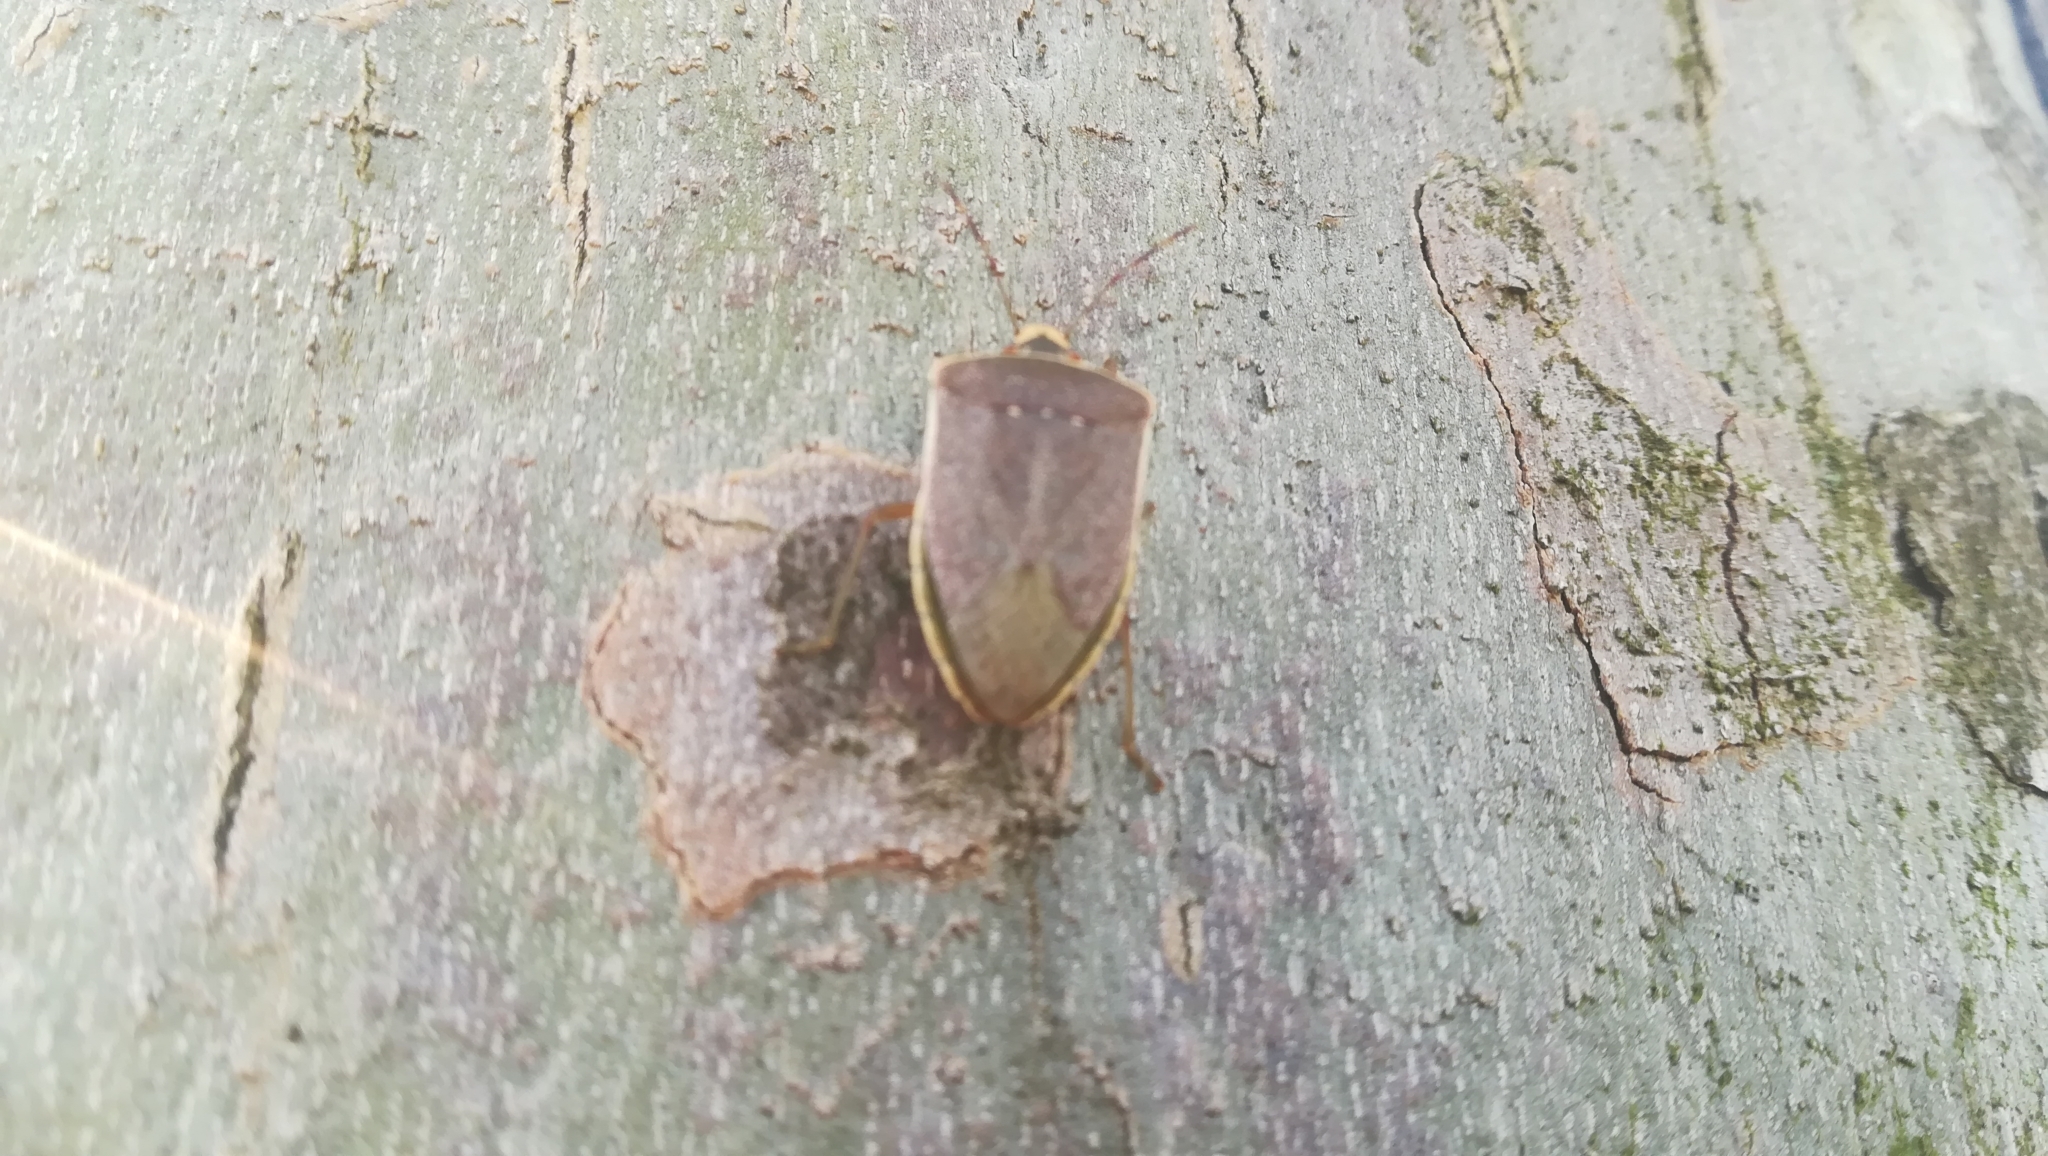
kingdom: Animalia
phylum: Arthropoda
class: Insecta
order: Hemiptera
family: Pentatomidae
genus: Nezara
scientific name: Nezara viridula
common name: Southern green stink bug
